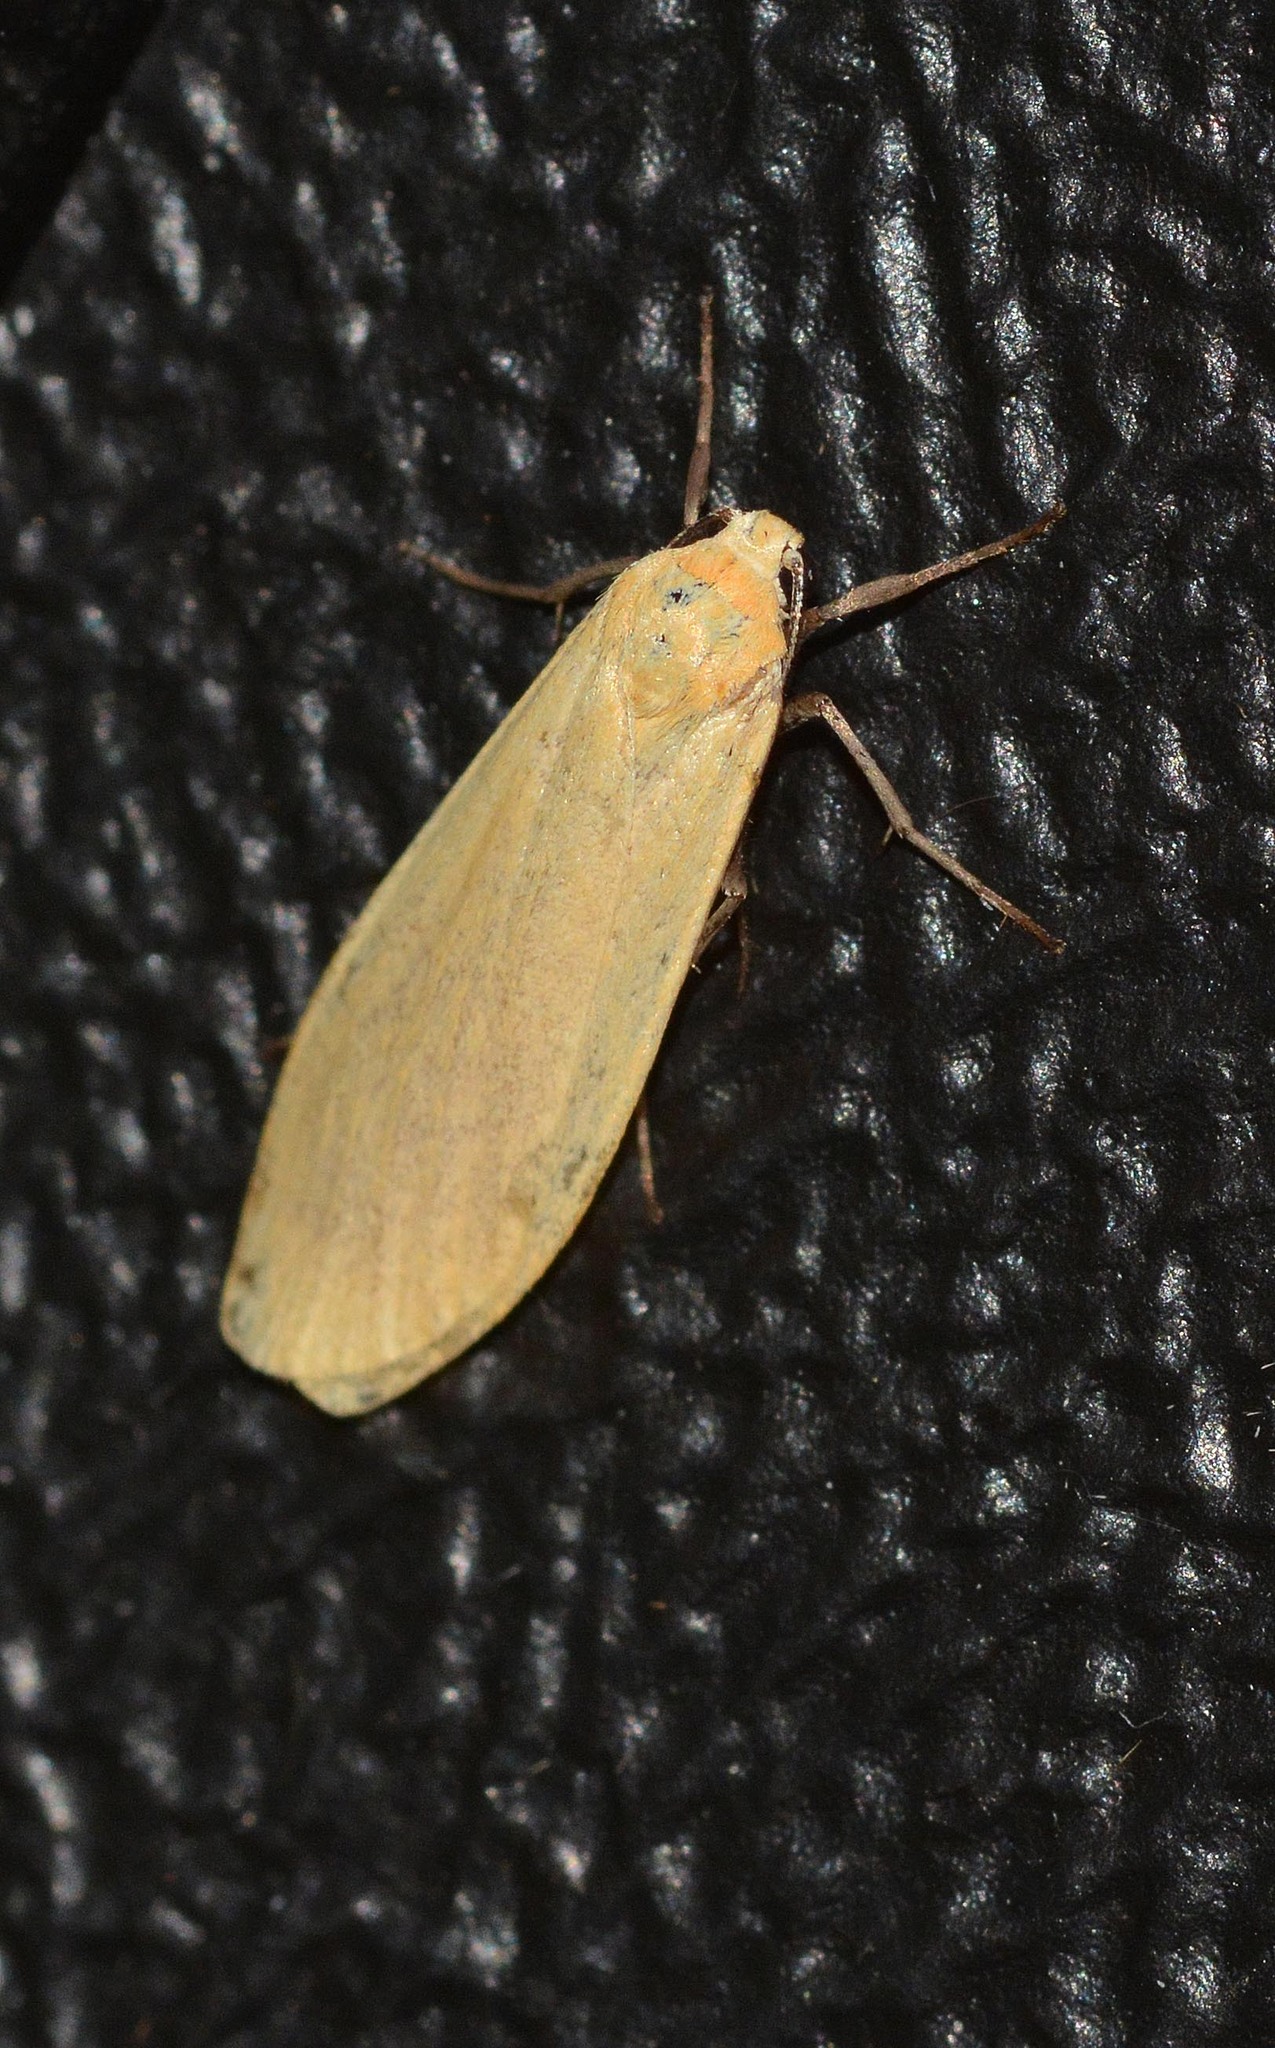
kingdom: Animalia
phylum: Arthropoda
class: Insecta
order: Lepidoptera
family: Erebidae
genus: Wittia
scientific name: Wittia sororcula
